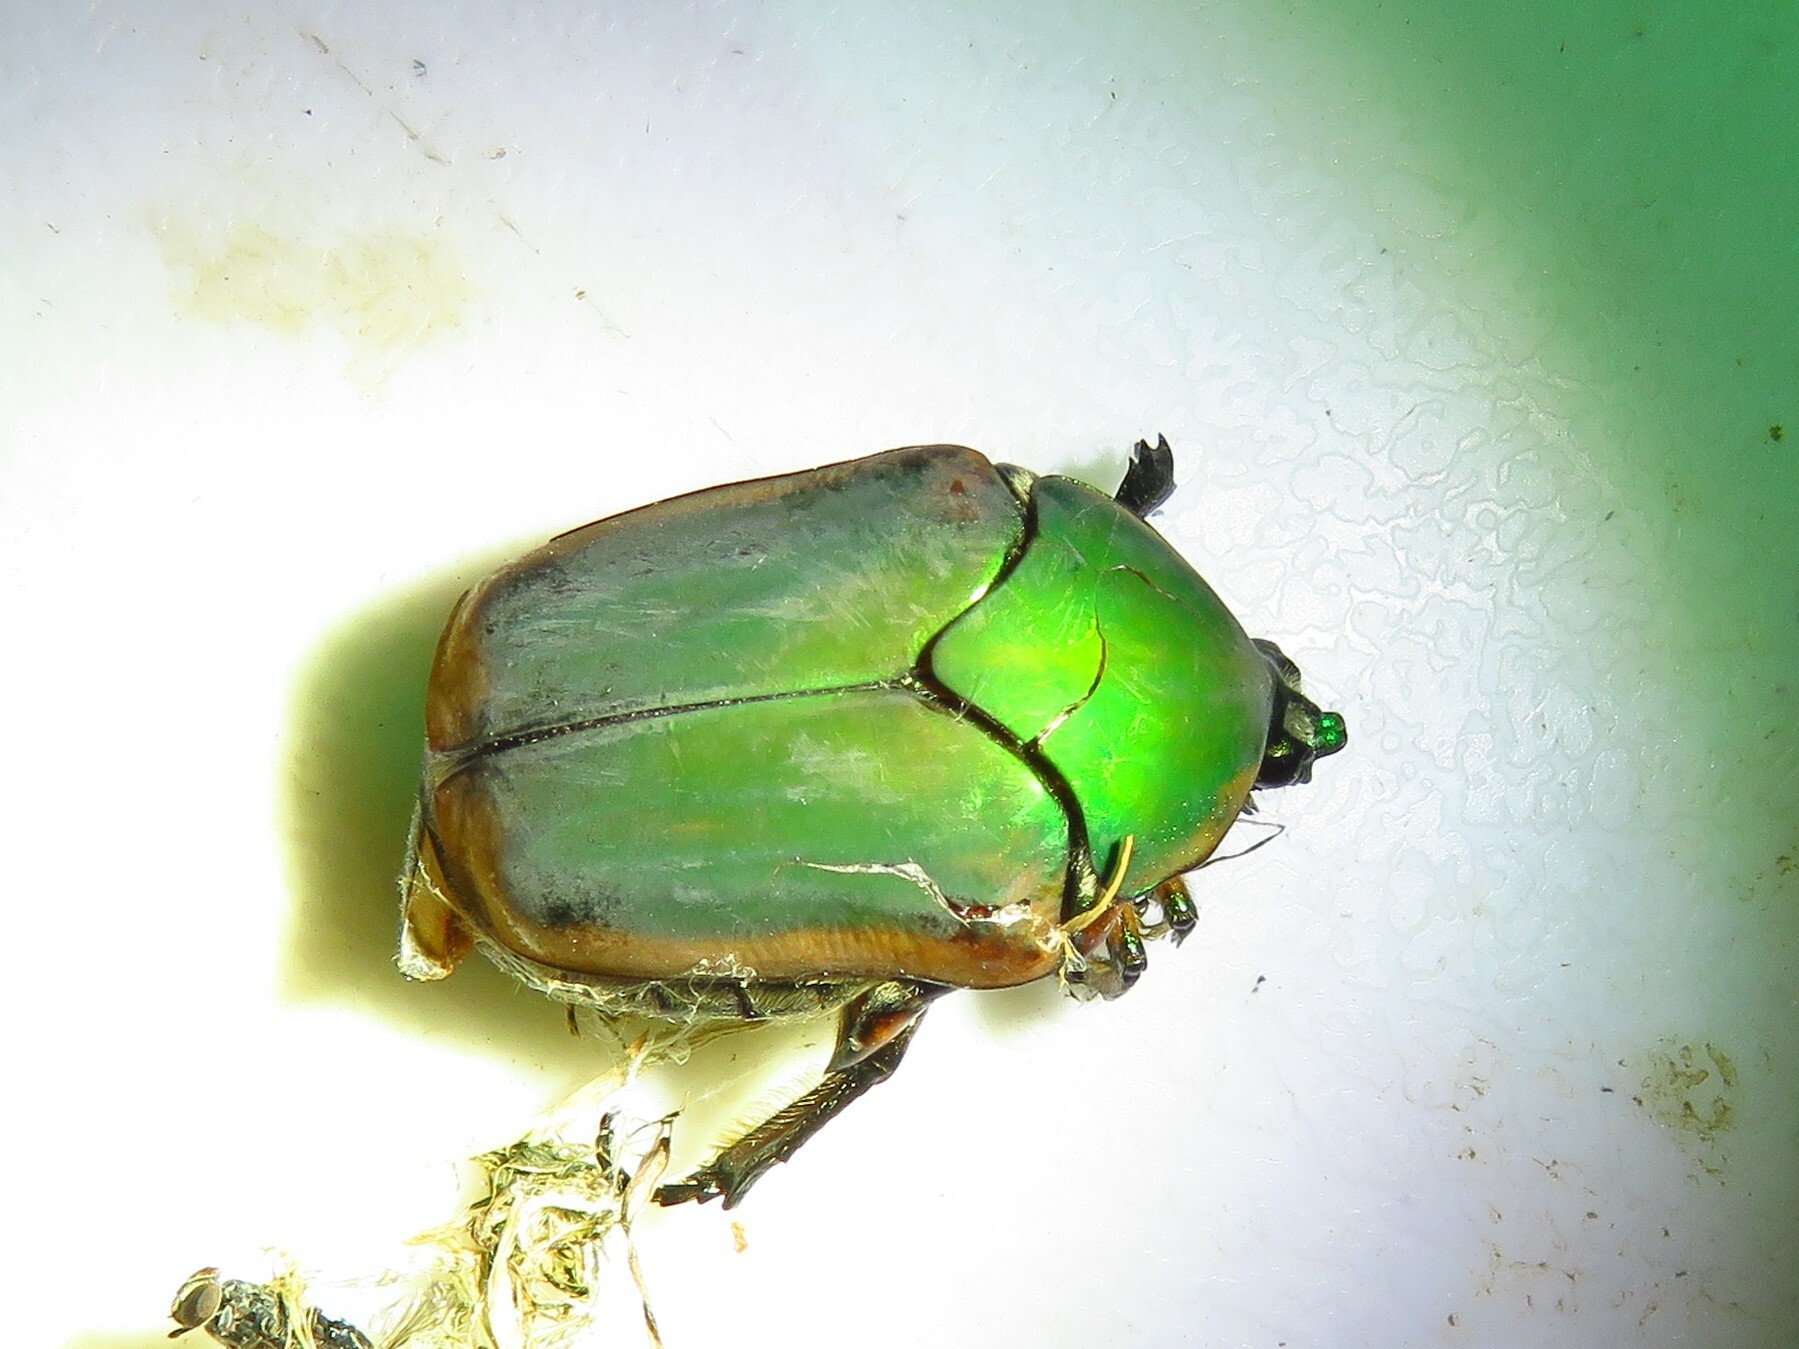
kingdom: Animalia
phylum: Arthropoda
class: Insecta
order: Coleoptera
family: Scarabaeidae
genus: Cotinis
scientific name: Cotinis nitida
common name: Common green june beetle
